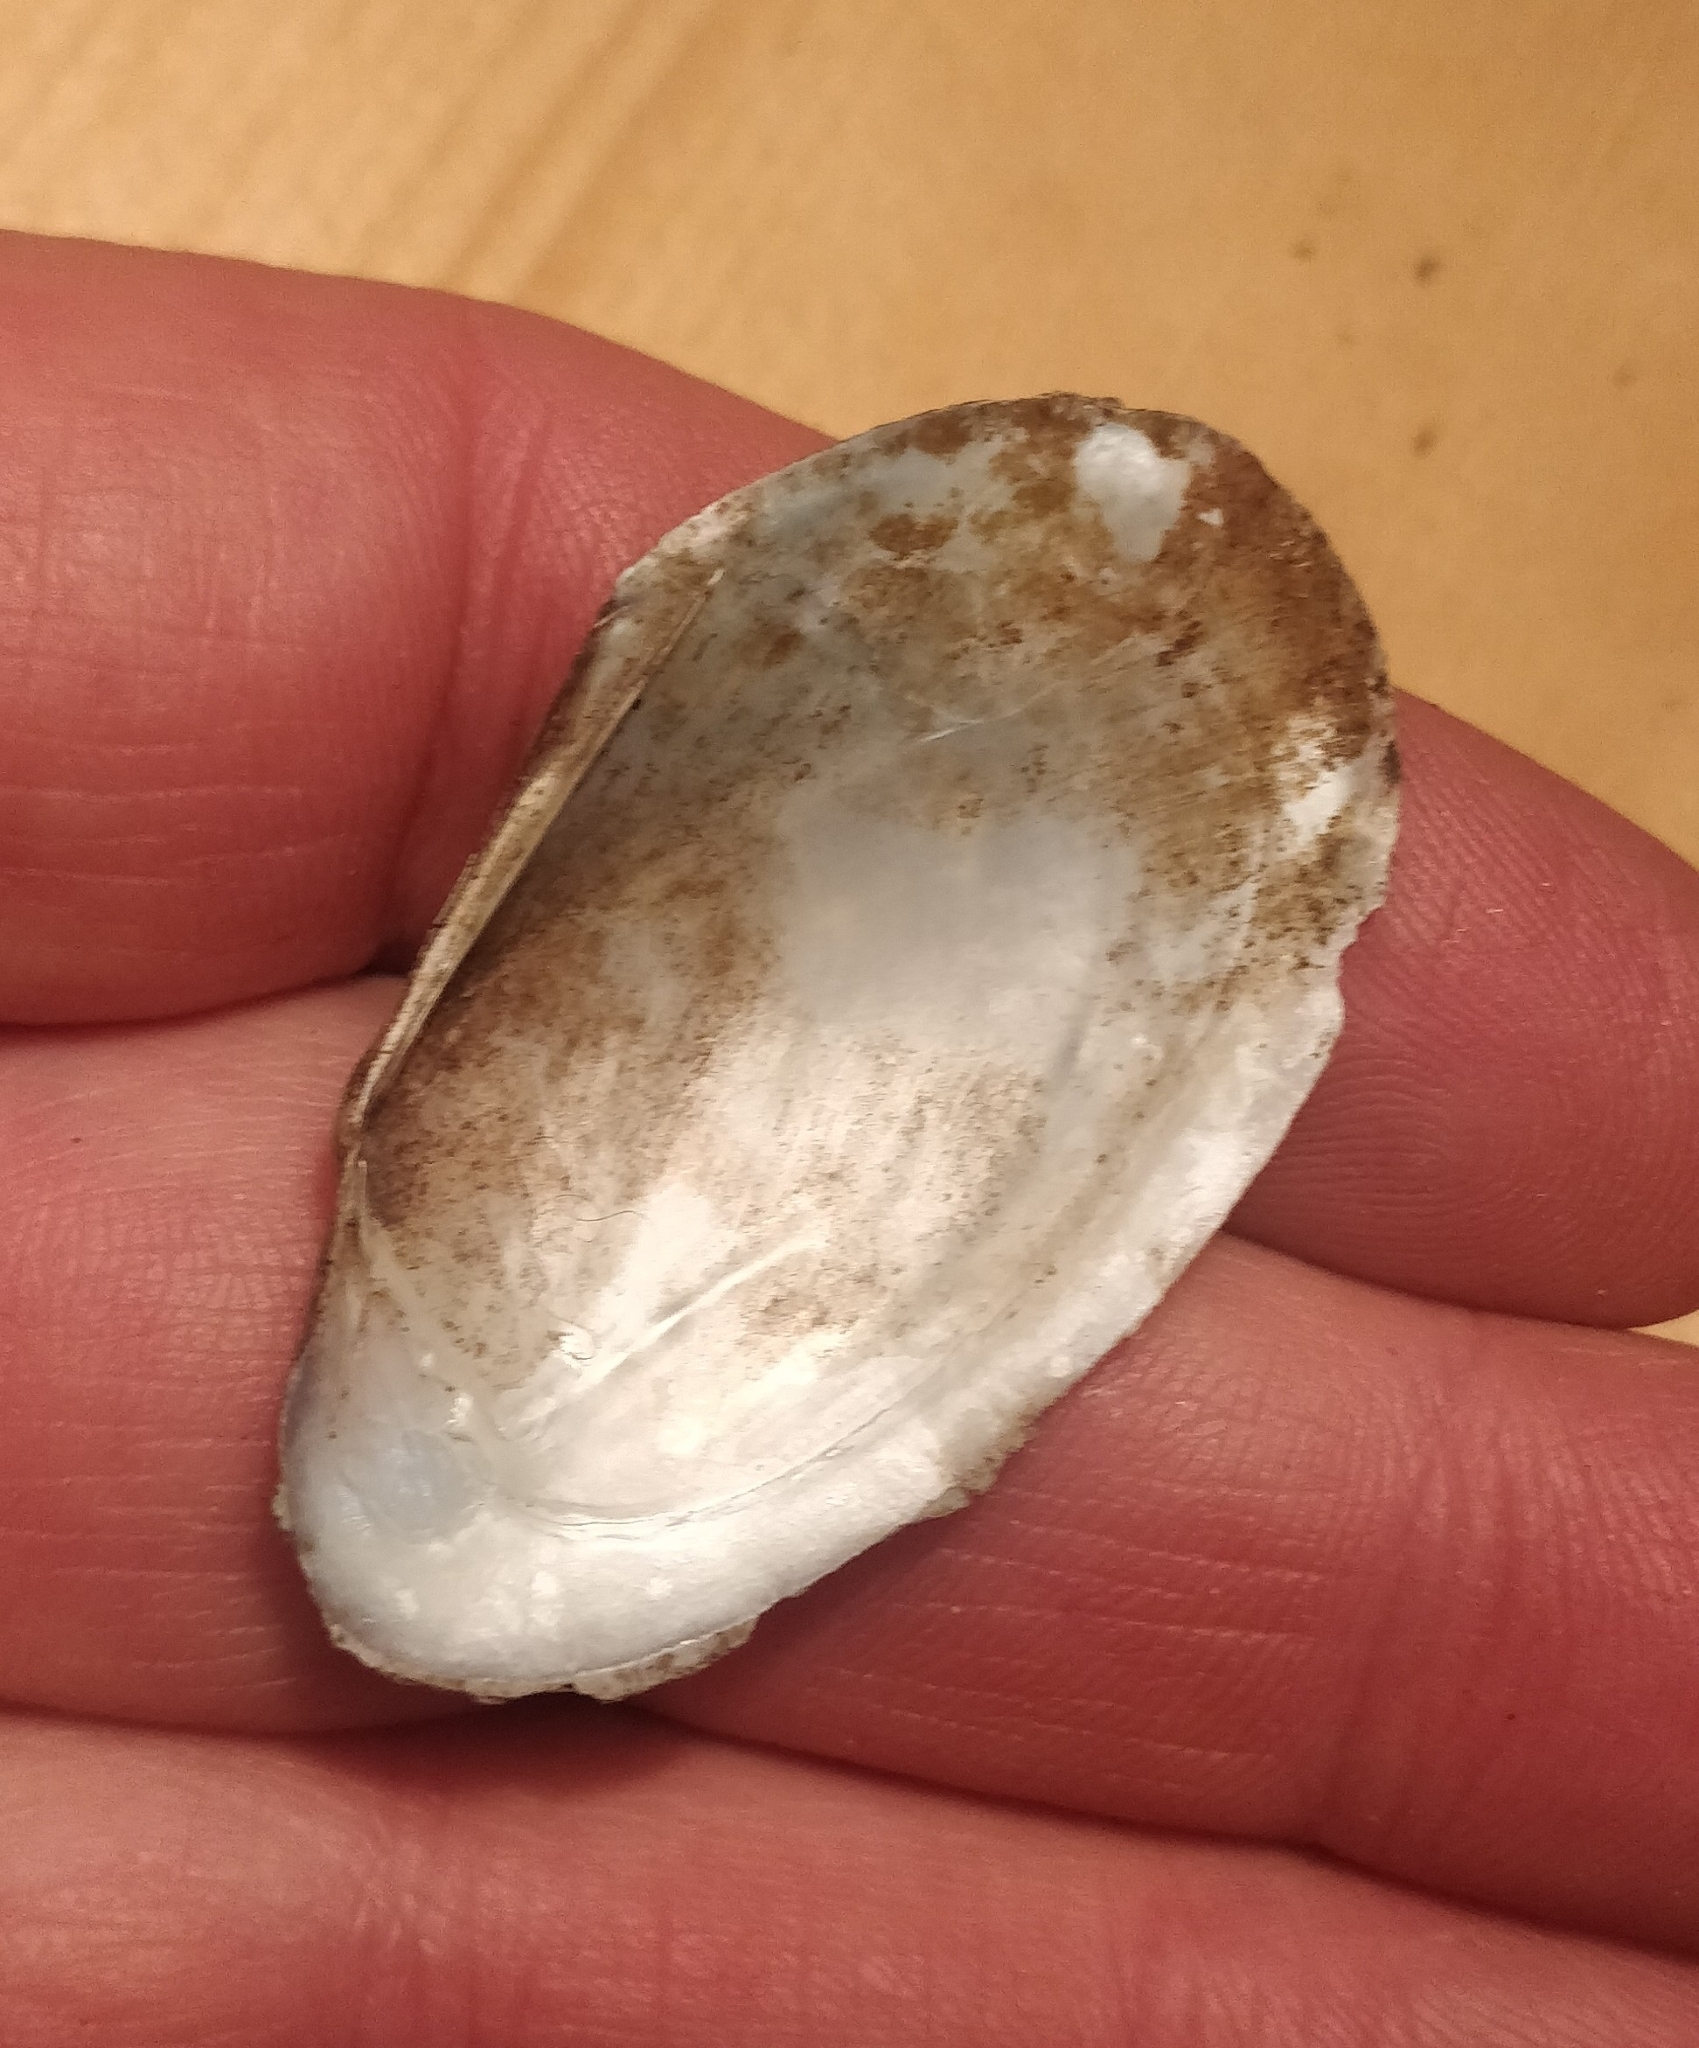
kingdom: Animalia
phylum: Mollusca
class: Bivalvia
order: Unionida
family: Unionidae
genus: Potamilus
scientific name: Potamilus fragilis
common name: Fragile papershell
